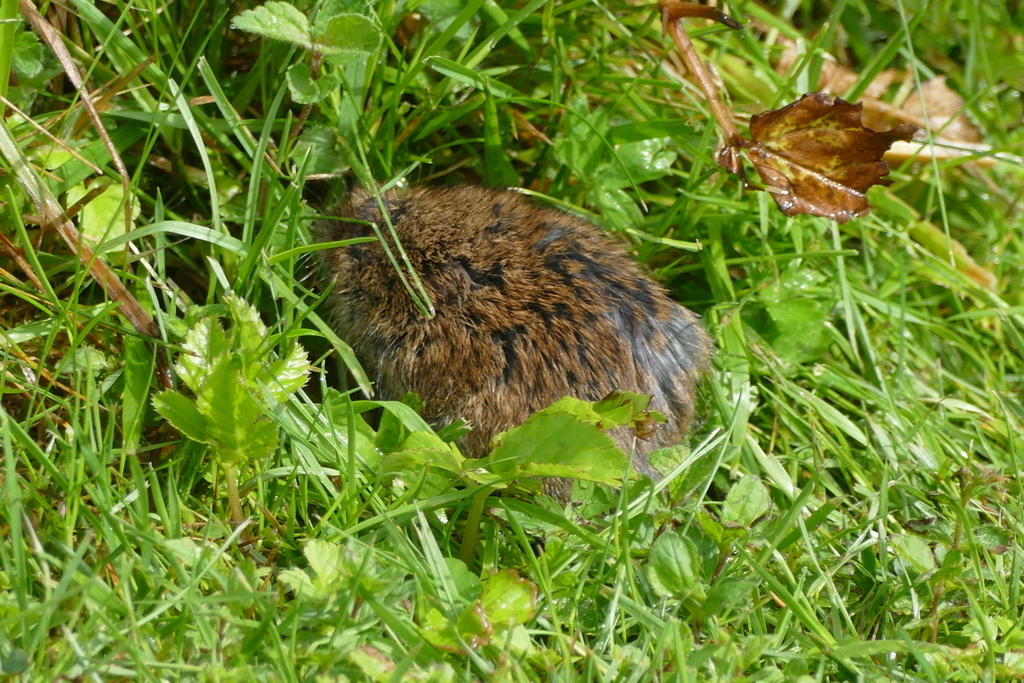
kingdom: Animalia
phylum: Chordata
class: Mammalia
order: Rodentia
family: Cricetidae
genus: Microtus
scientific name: Microtus agrestis
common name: Field vole
